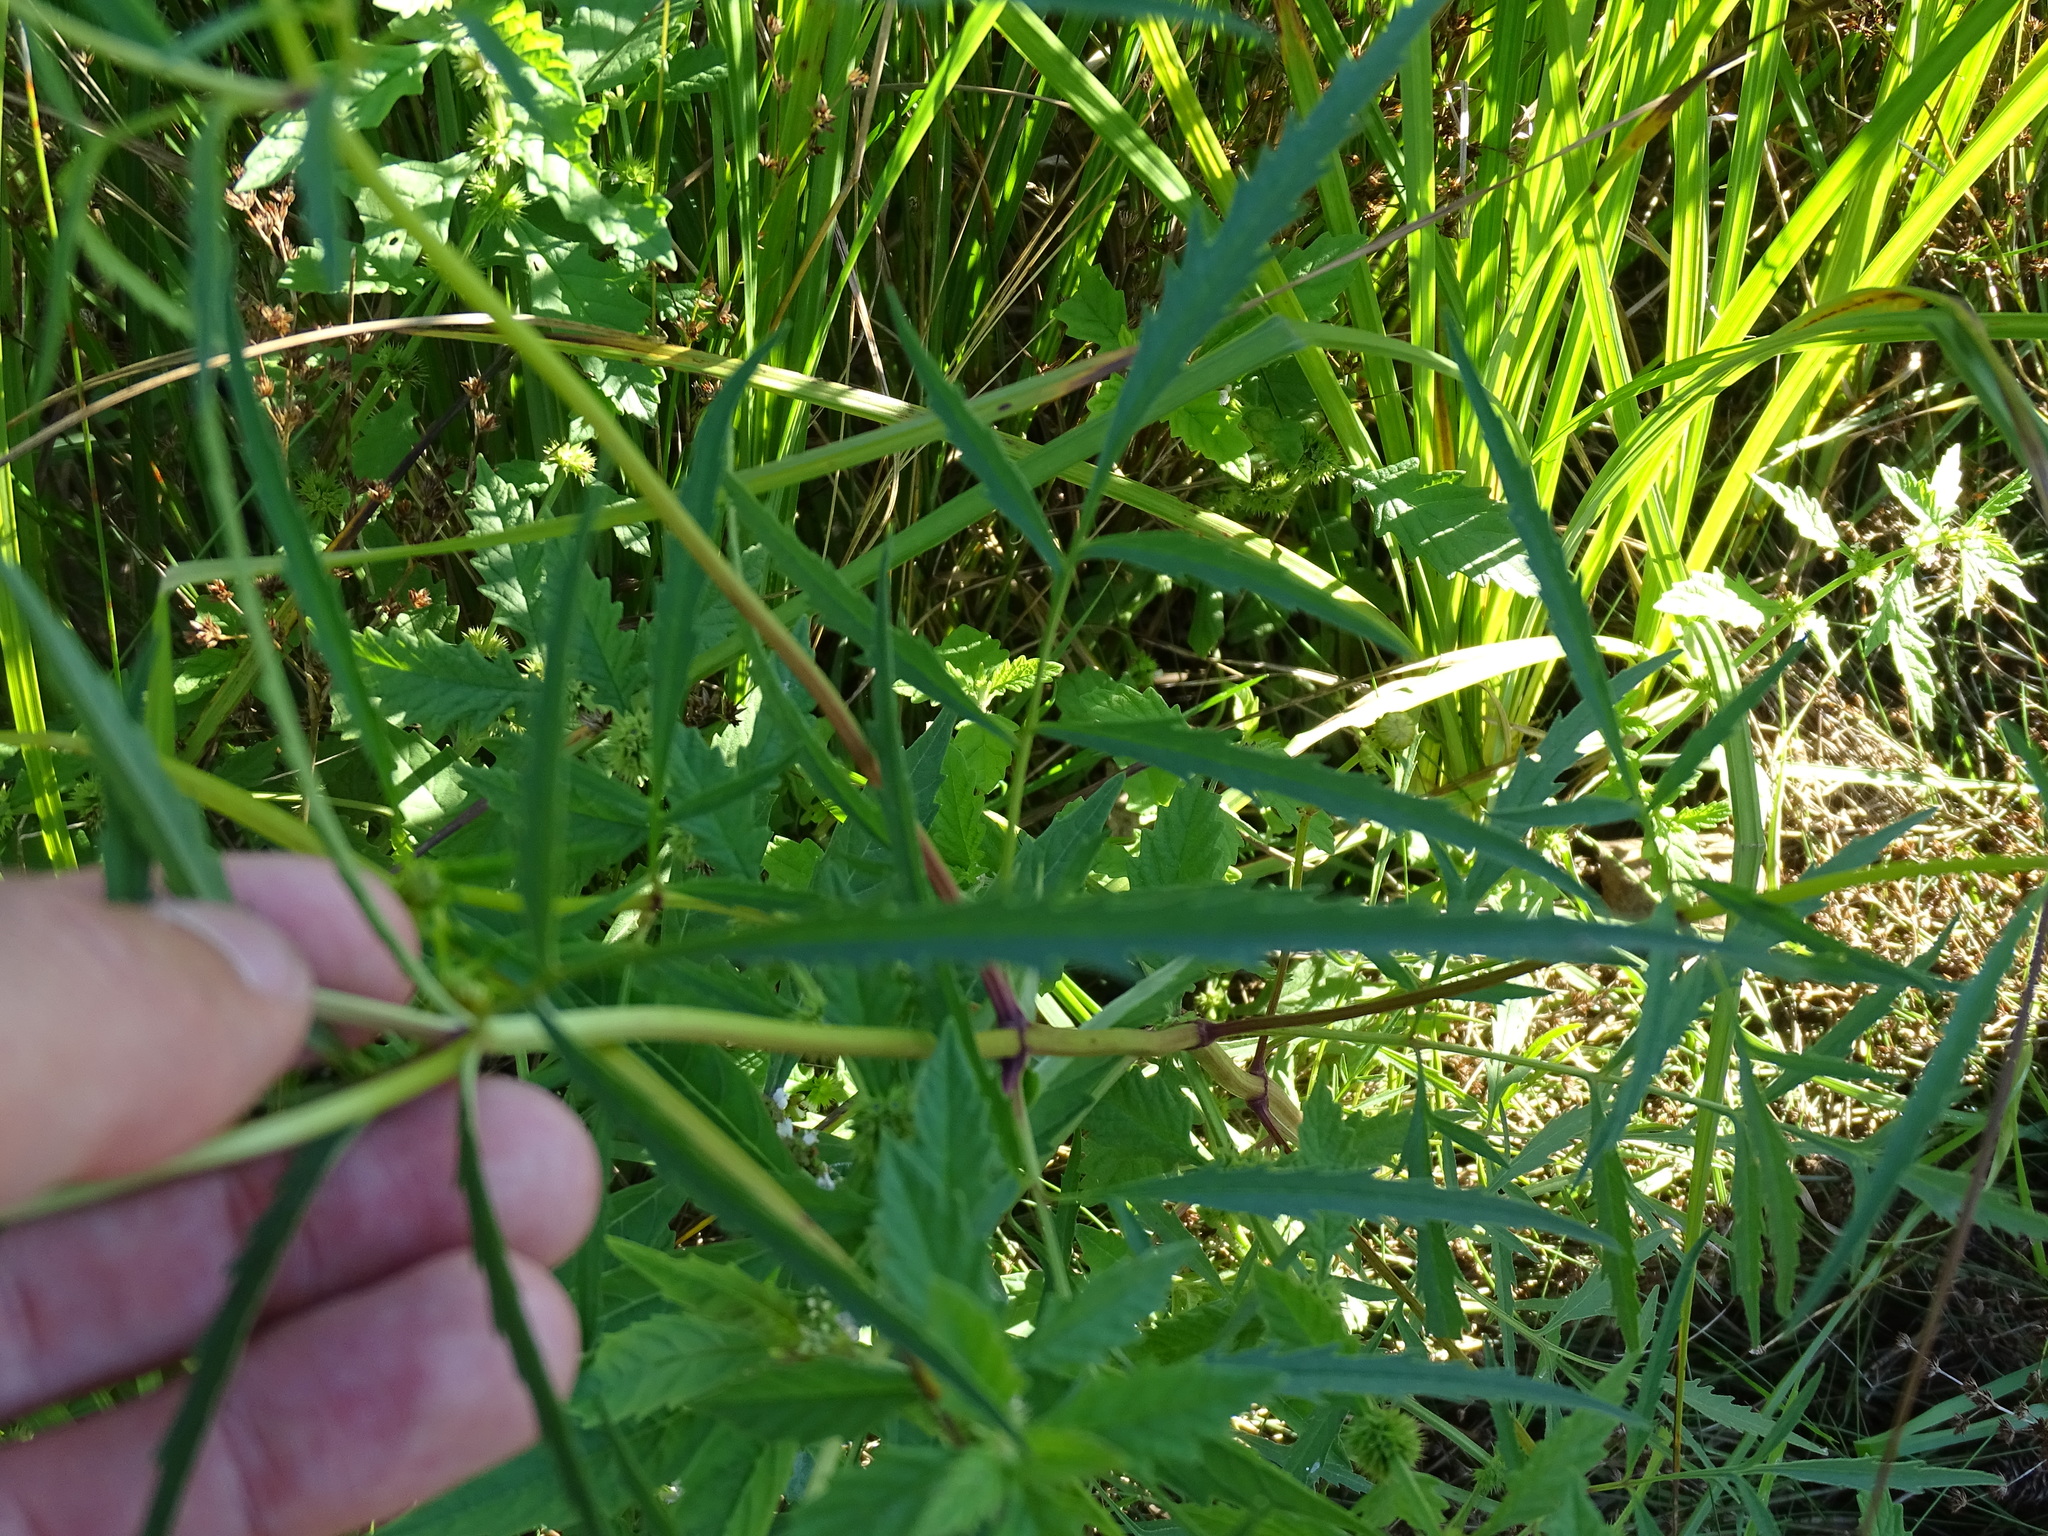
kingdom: Plantae
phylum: Tracheophyta
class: Magnoliopsida
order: Asterales
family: Asteraceae
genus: Bidens
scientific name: Bidens trichosperma
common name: Crowned beggarticks
